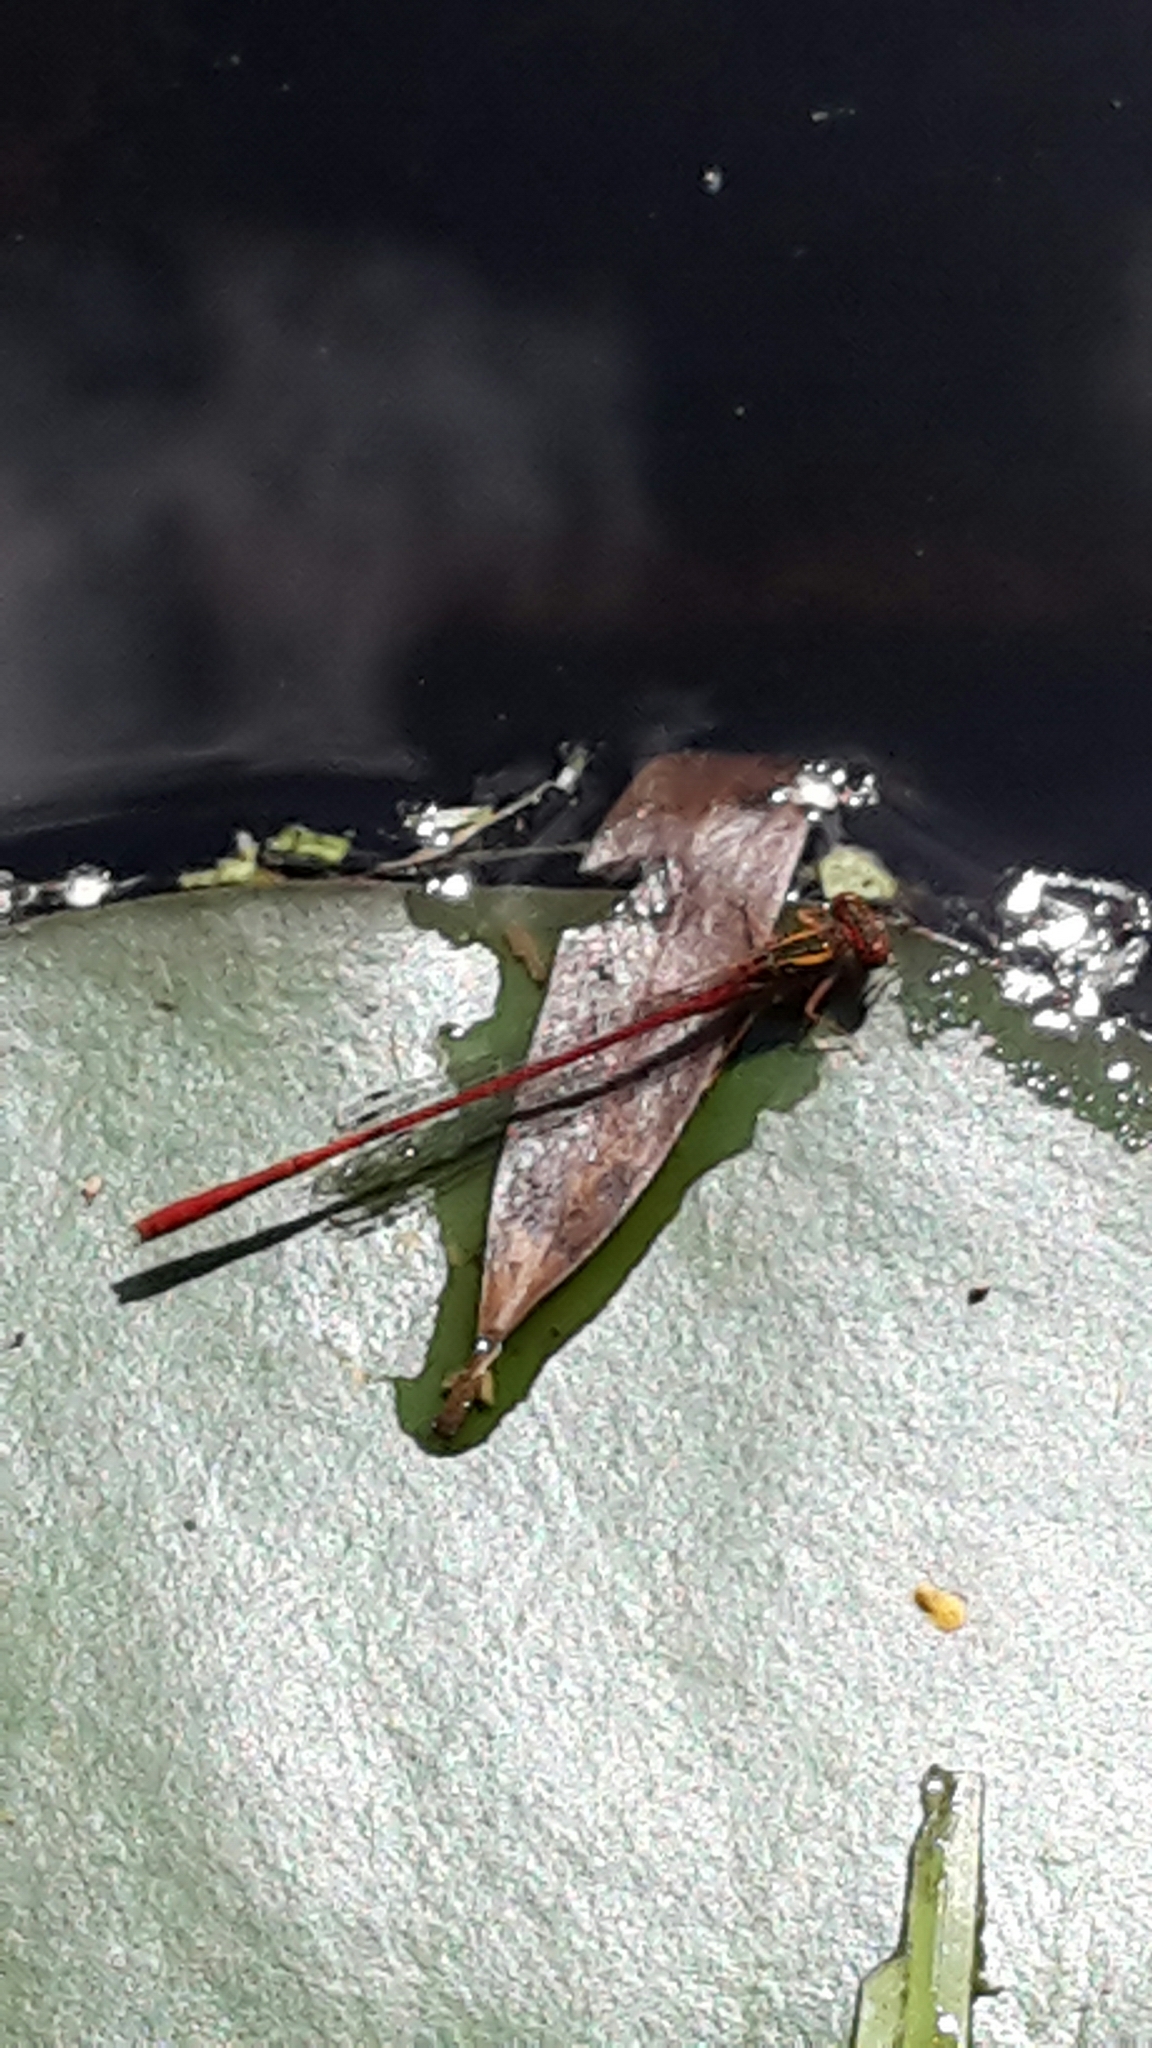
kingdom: Animalia
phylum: Arthropoda
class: Insecta
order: Odonata
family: Coenagrionidae
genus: Xanthocnemis
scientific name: Xanthocnemis zealandica
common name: Common redcoat damselfly
